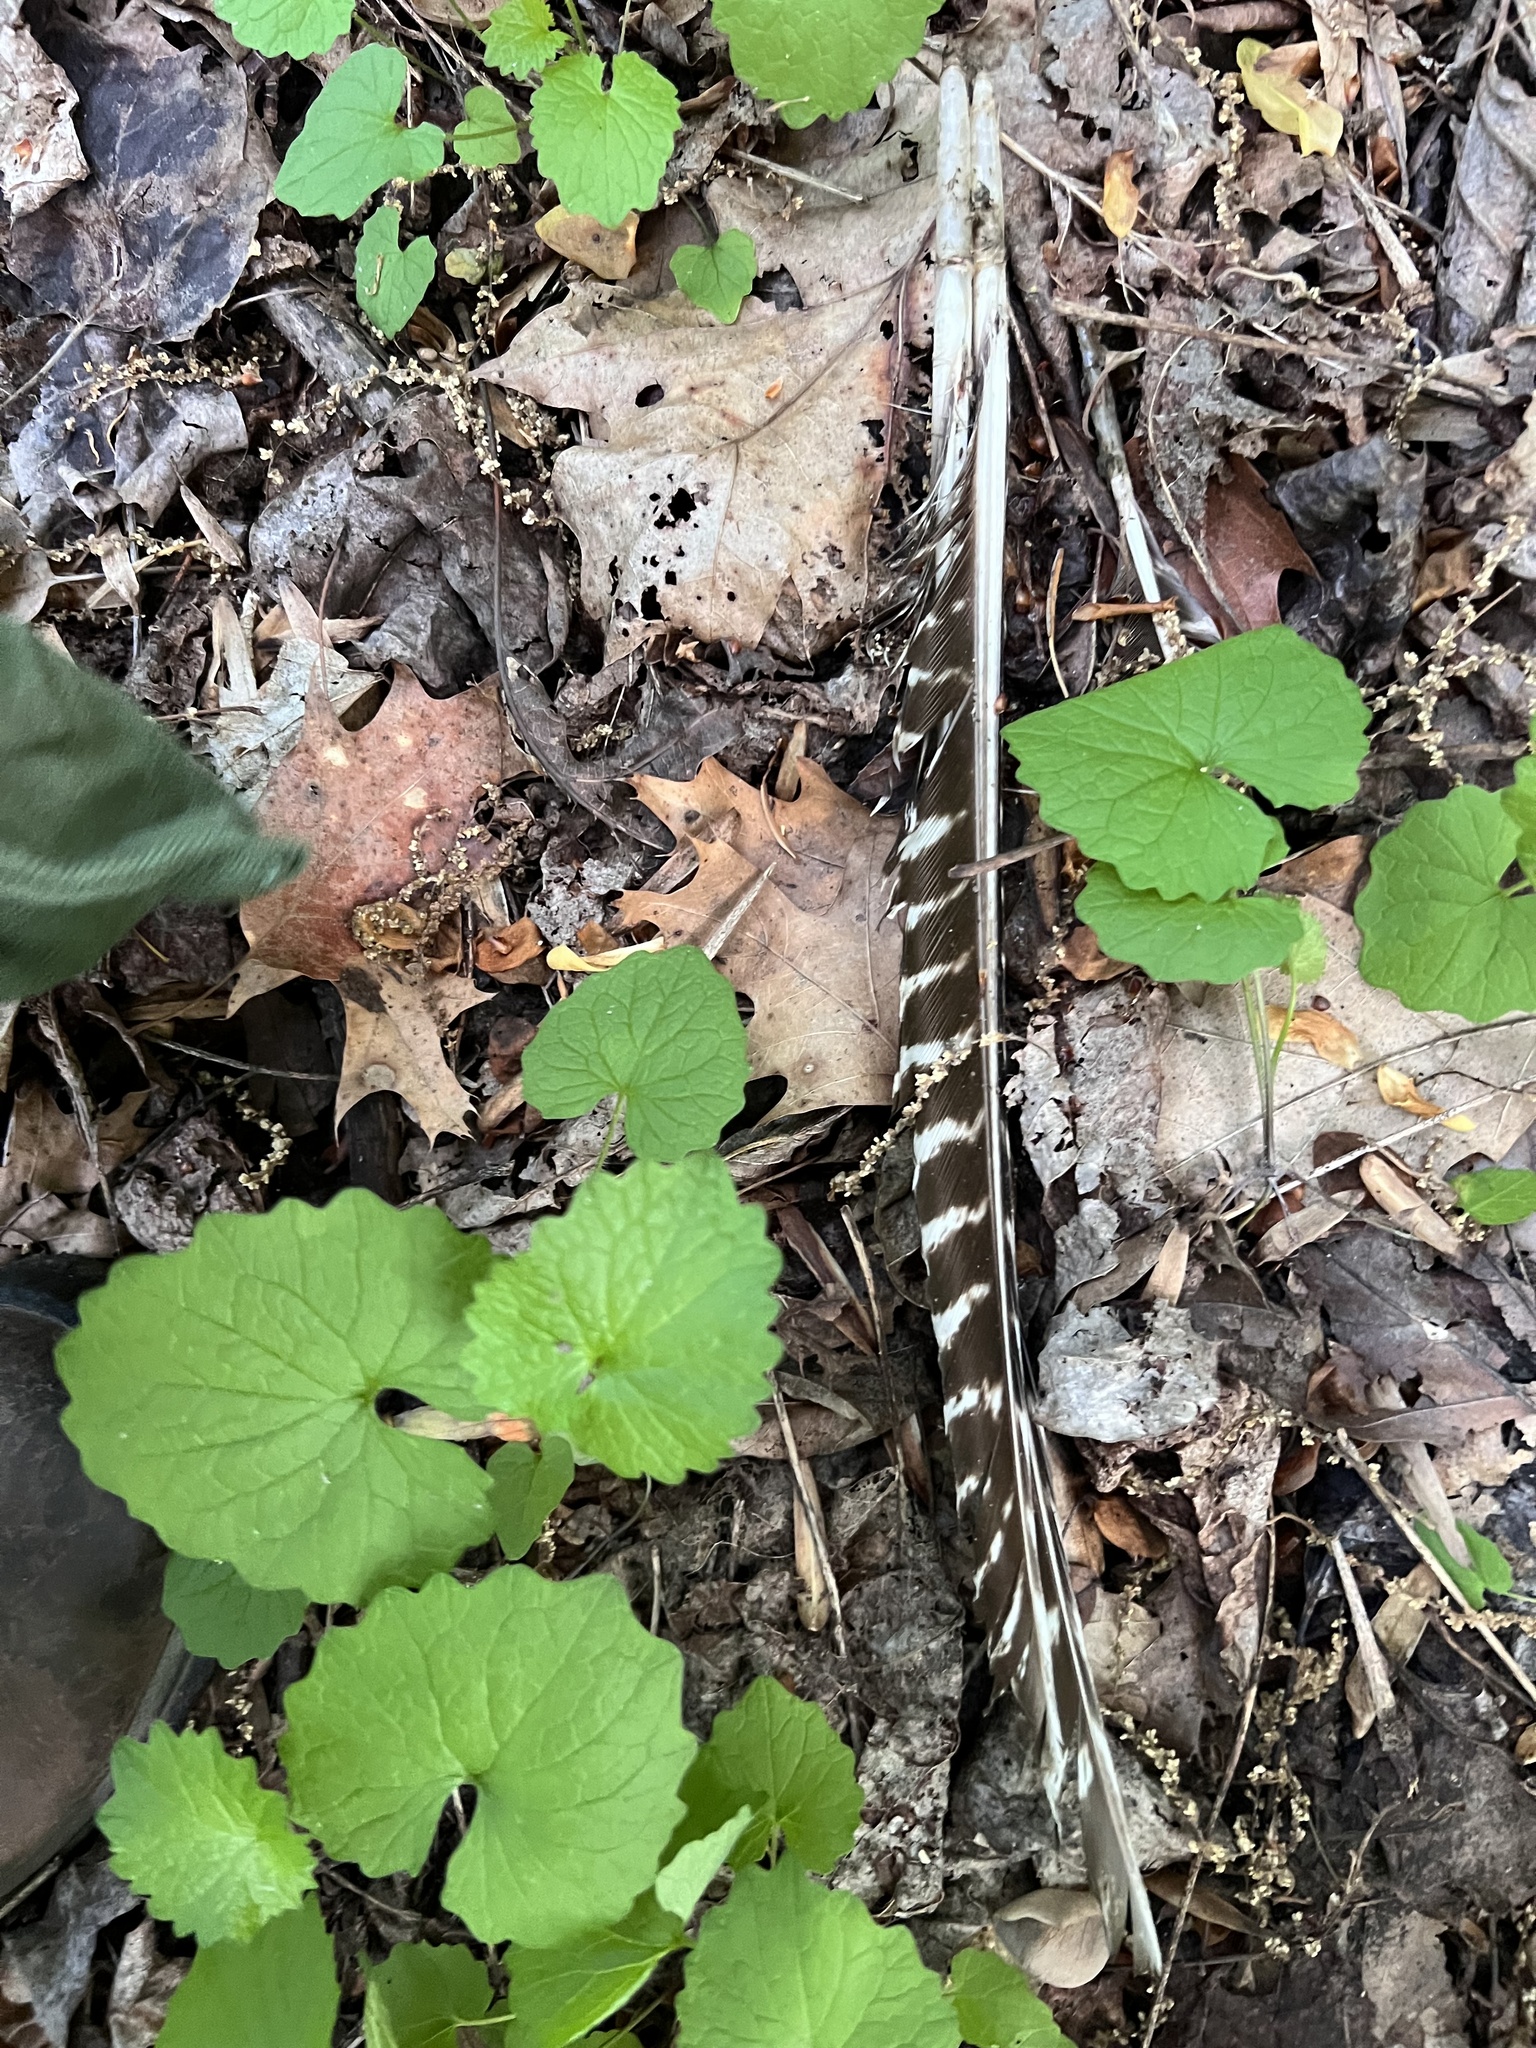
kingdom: Animalia
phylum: Chordata
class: Aves
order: Galliformes
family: Phasianidae
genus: Meleagris
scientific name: Meleagris gallopavo
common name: Wild turkey
